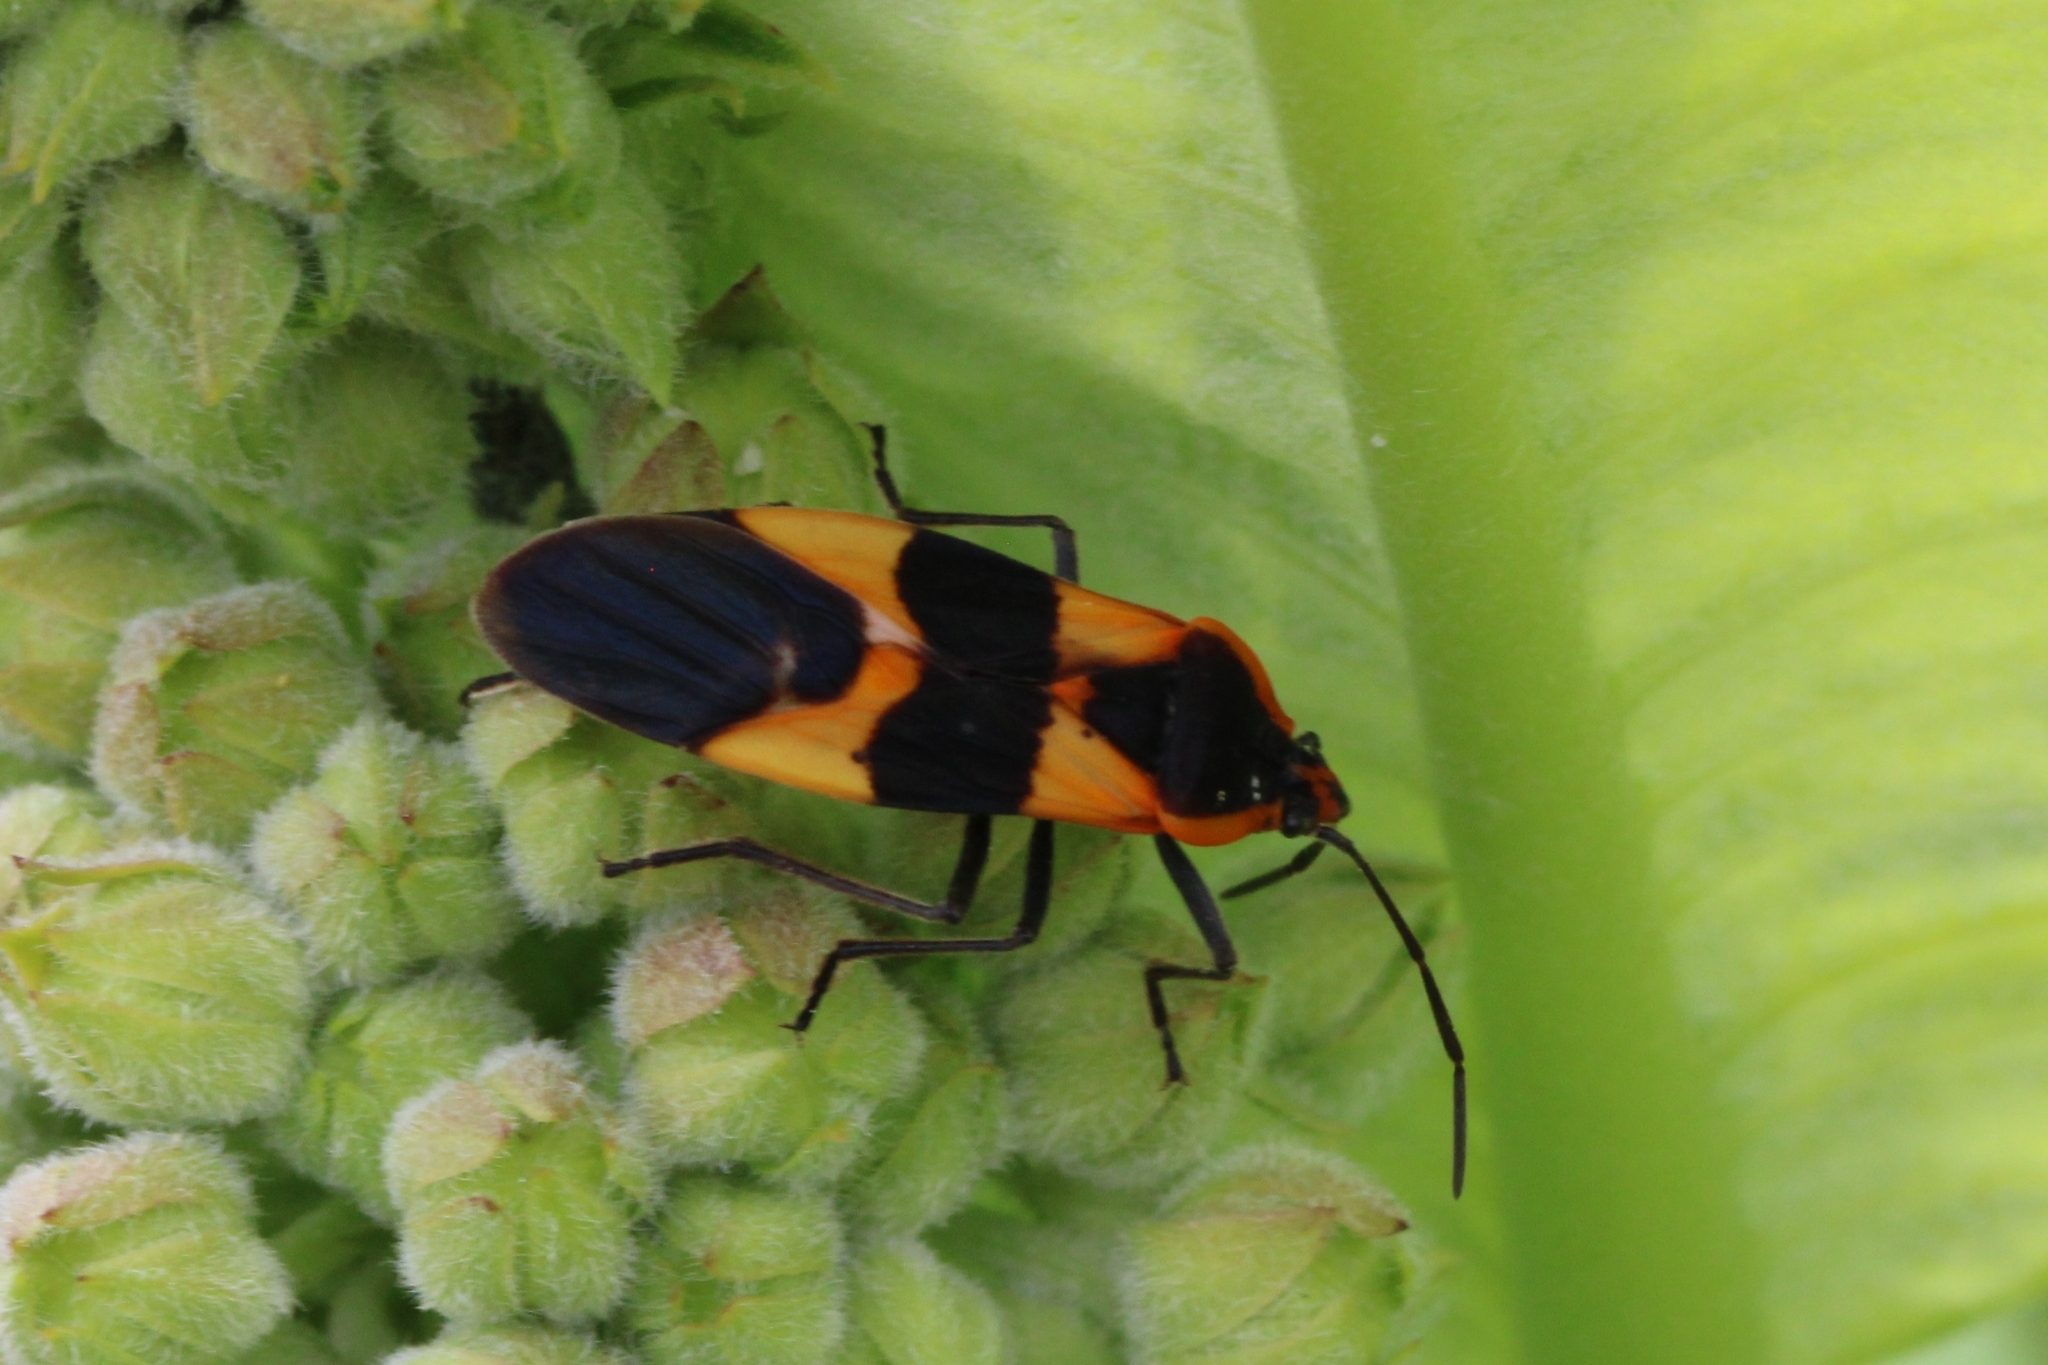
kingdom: Animalia
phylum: Arthropoda
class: Insecta
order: Hemiptera
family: Lygaeidae
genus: Oncopeltus
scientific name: Oncopeltus fasciatus
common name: Large milkweed bug
